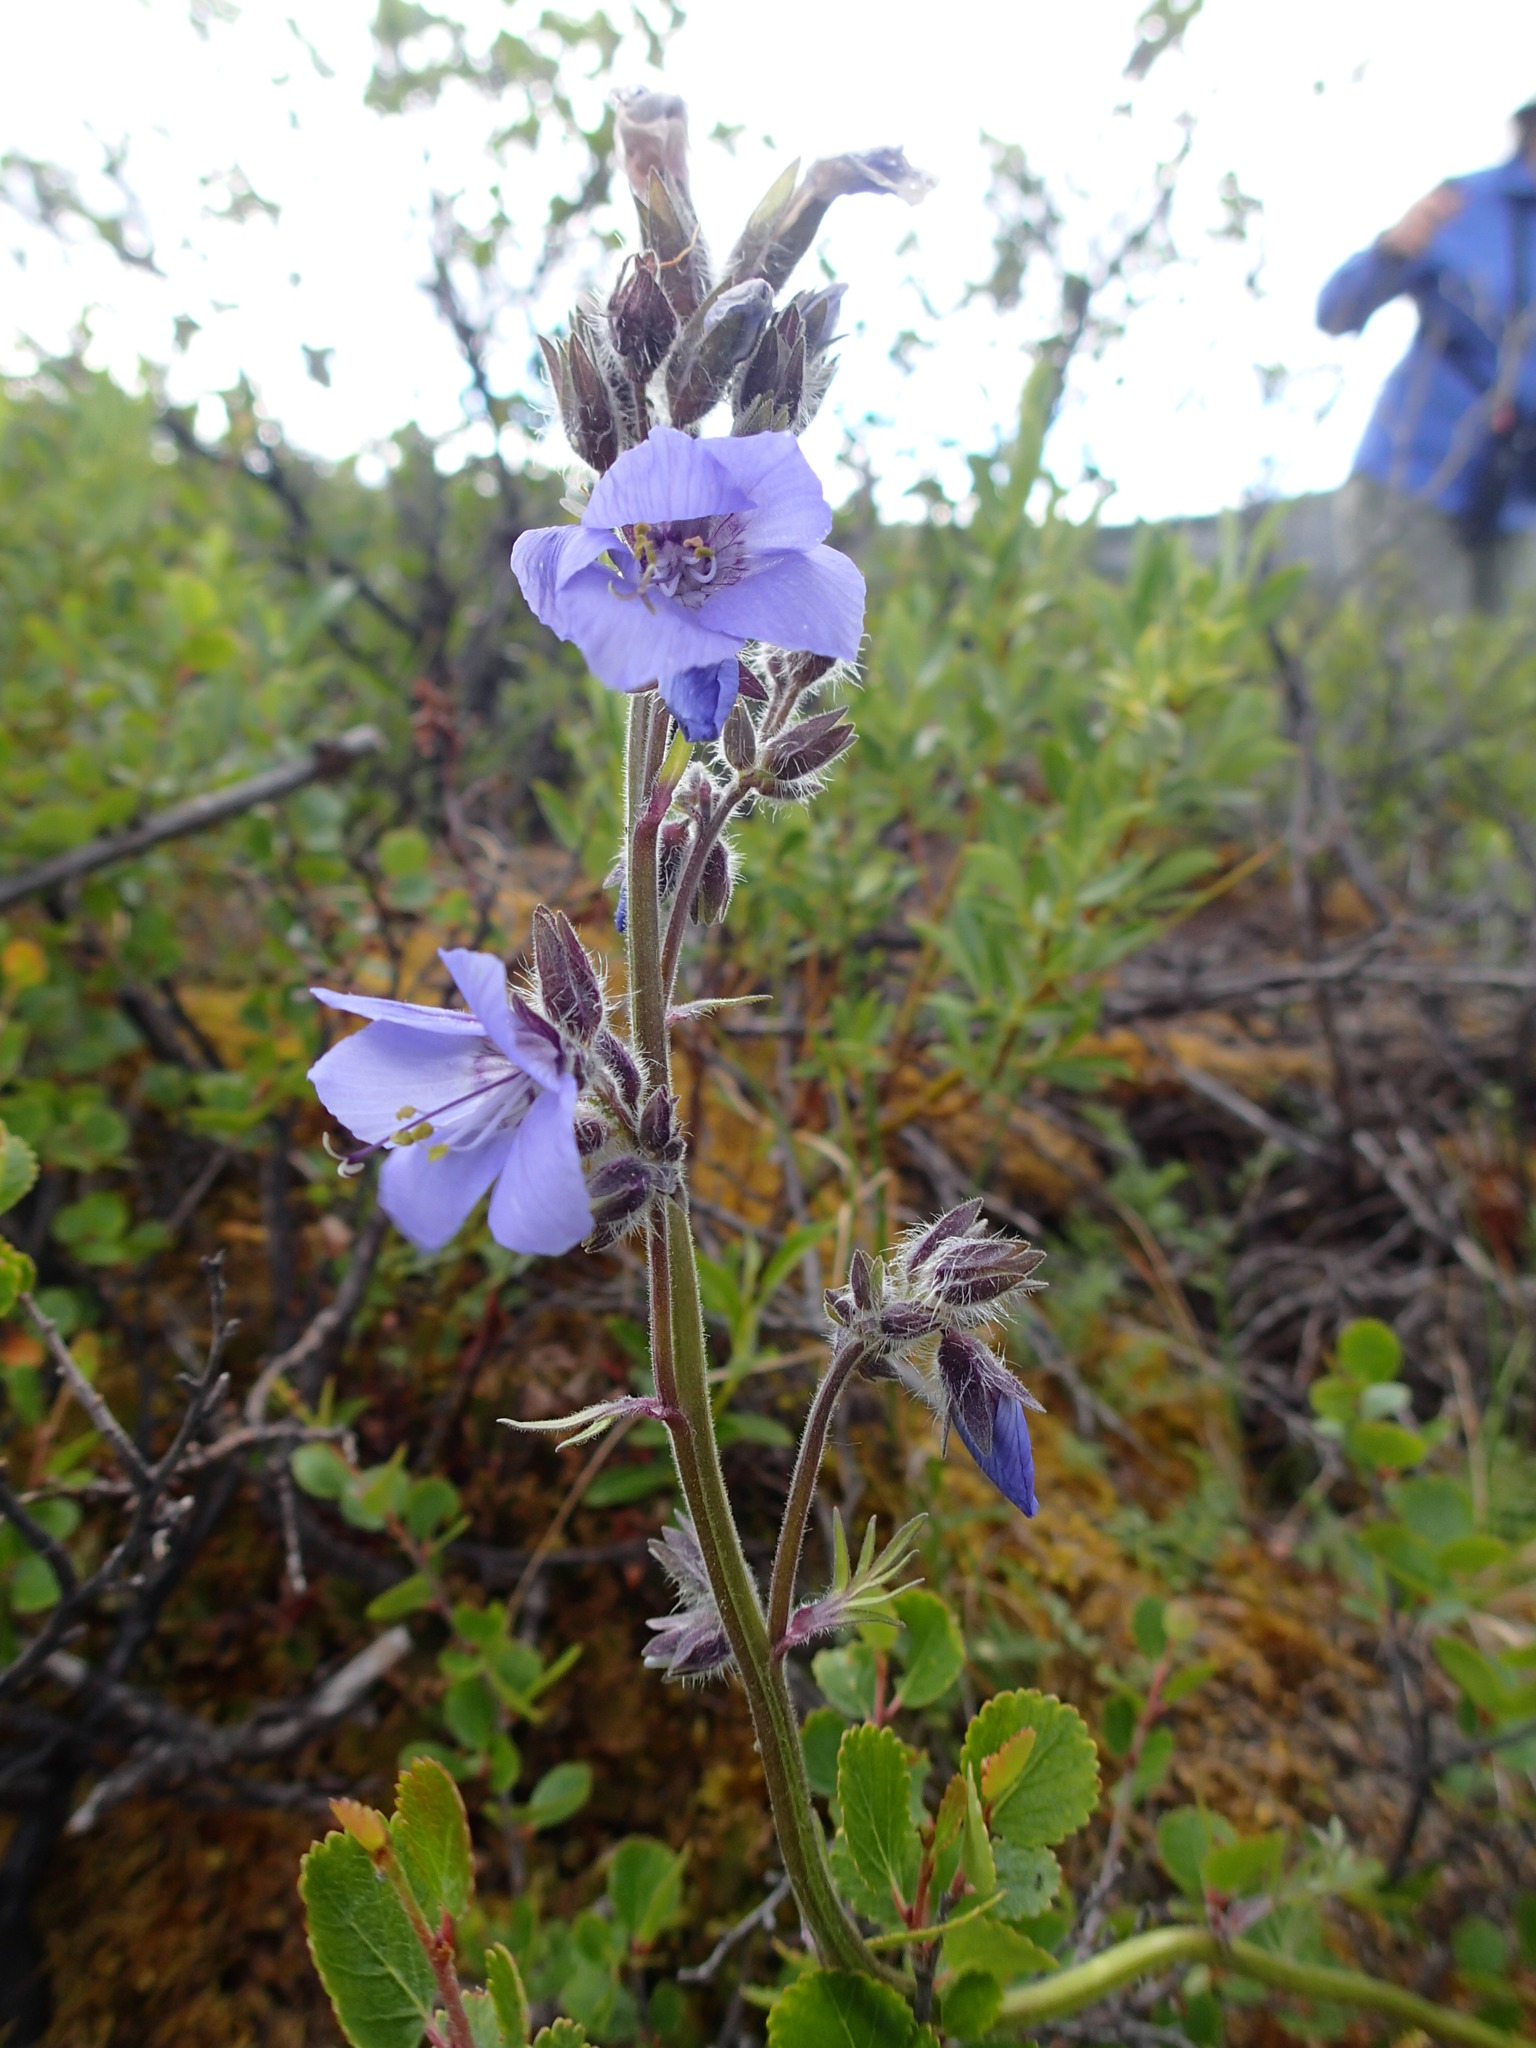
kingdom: Plantae
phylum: Tracheophyta
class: Magnoliopsida
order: Ericales
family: Polemoniaceae
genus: Polemonium
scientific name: Polemonium acutiflorum
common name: Tall jacob's-ladder
